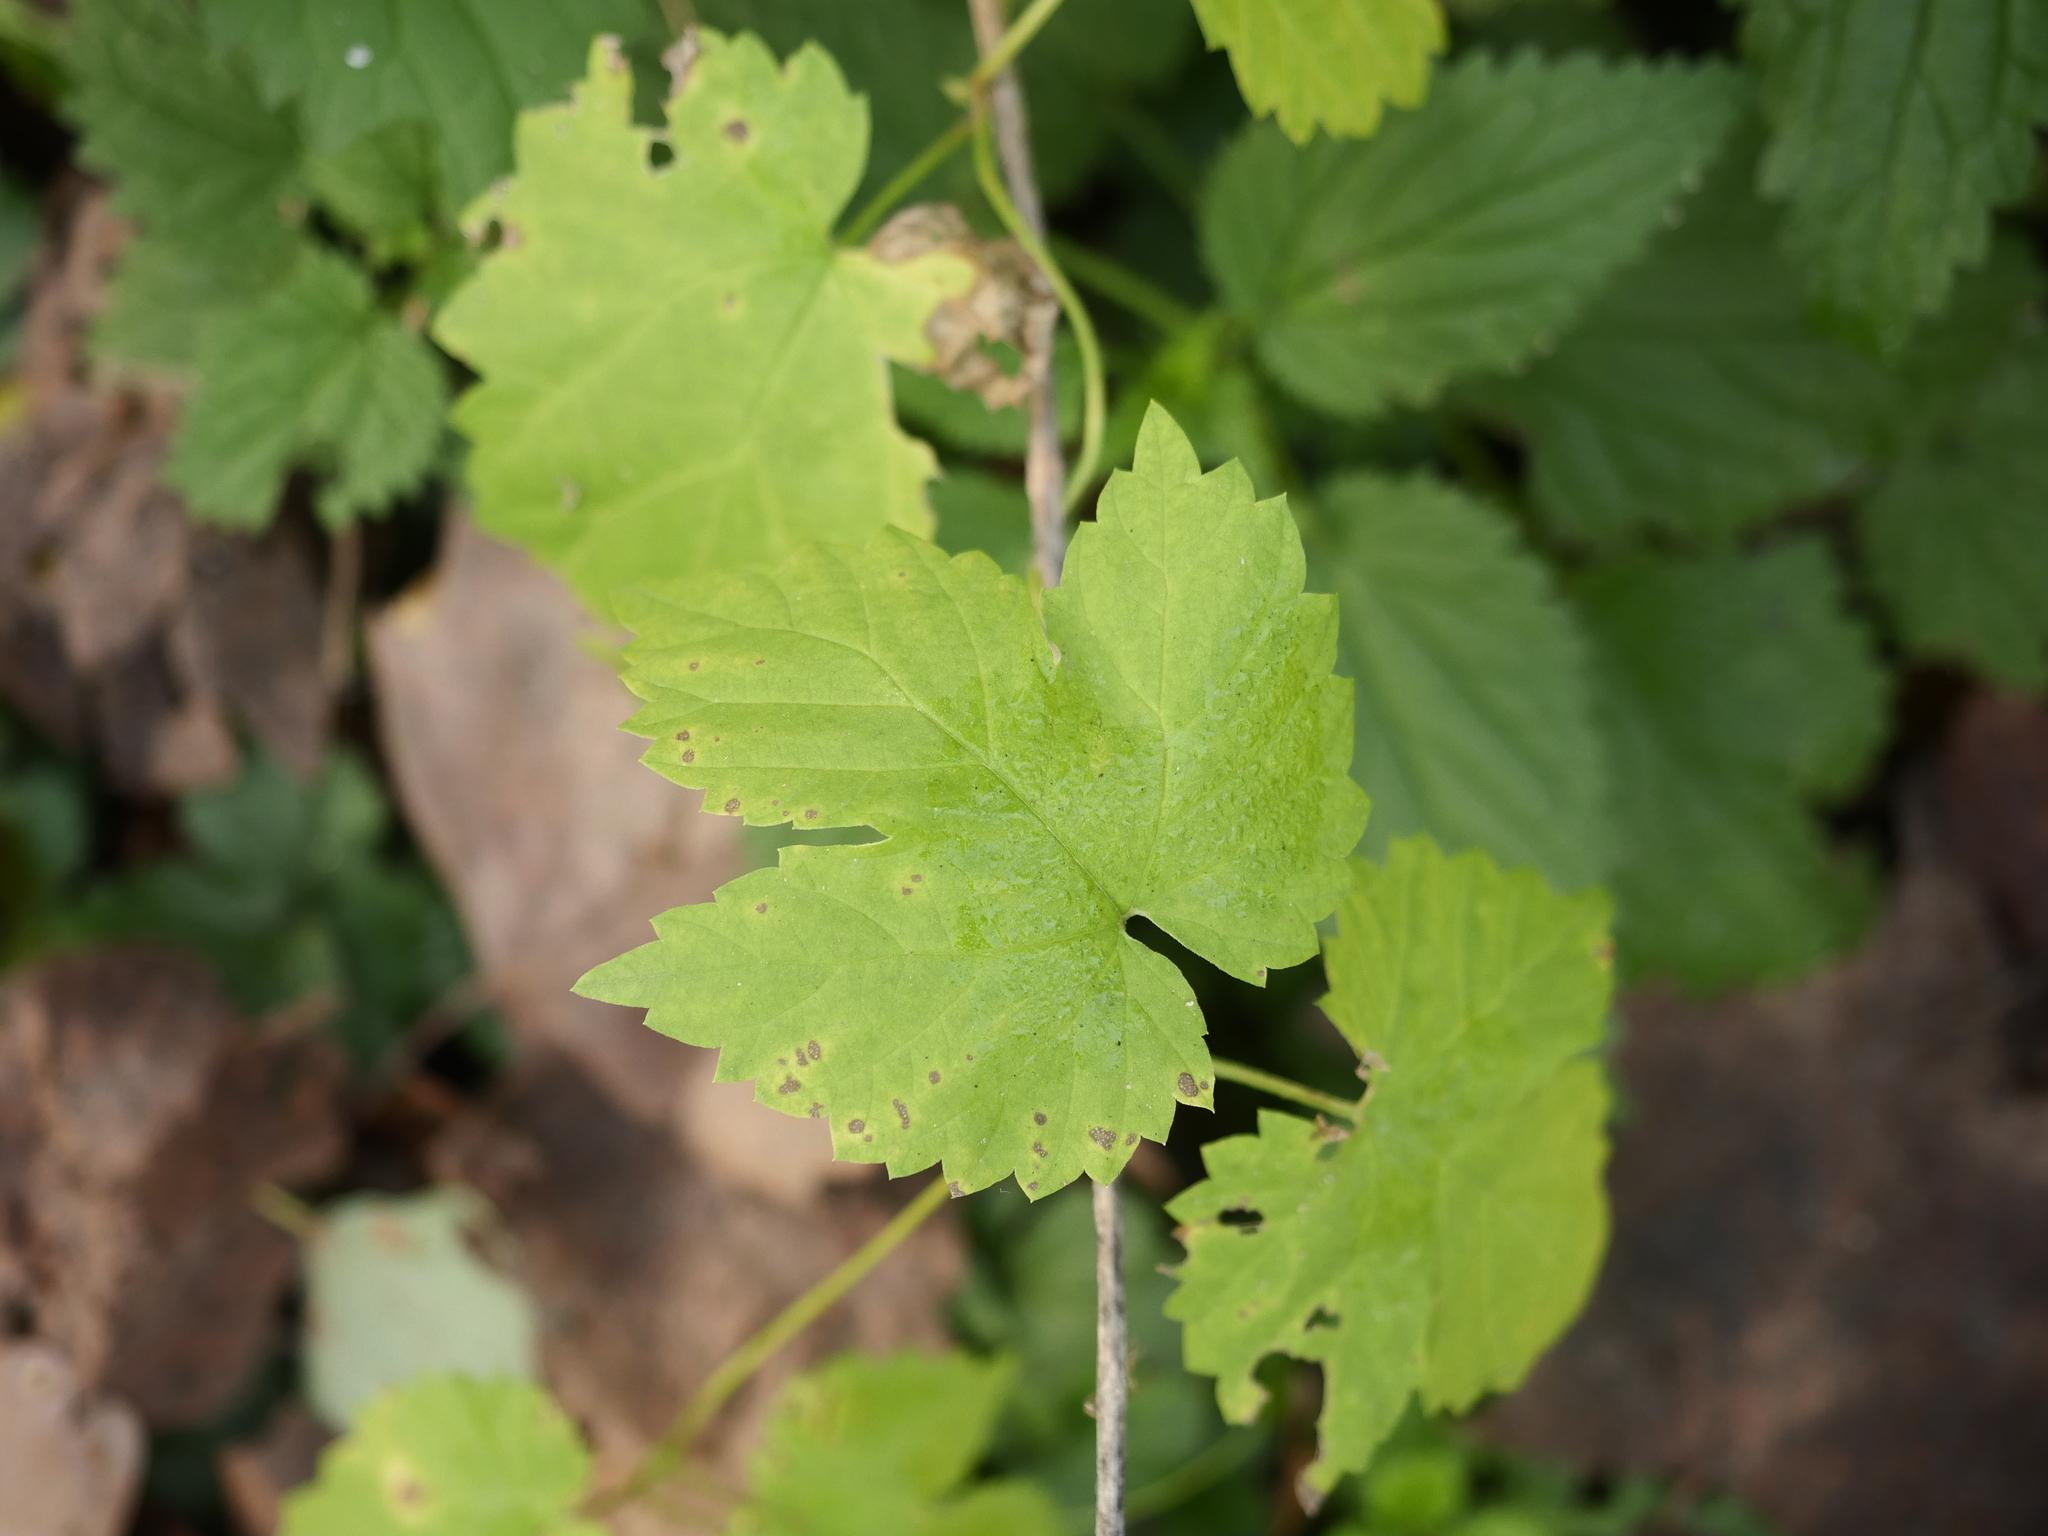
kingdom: Plantae
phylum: Tracheophyta
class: Magnoliopsida
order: Rosales
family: Cannabaceae
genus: Humulus
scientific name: Humulus lupulus
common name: Hop
